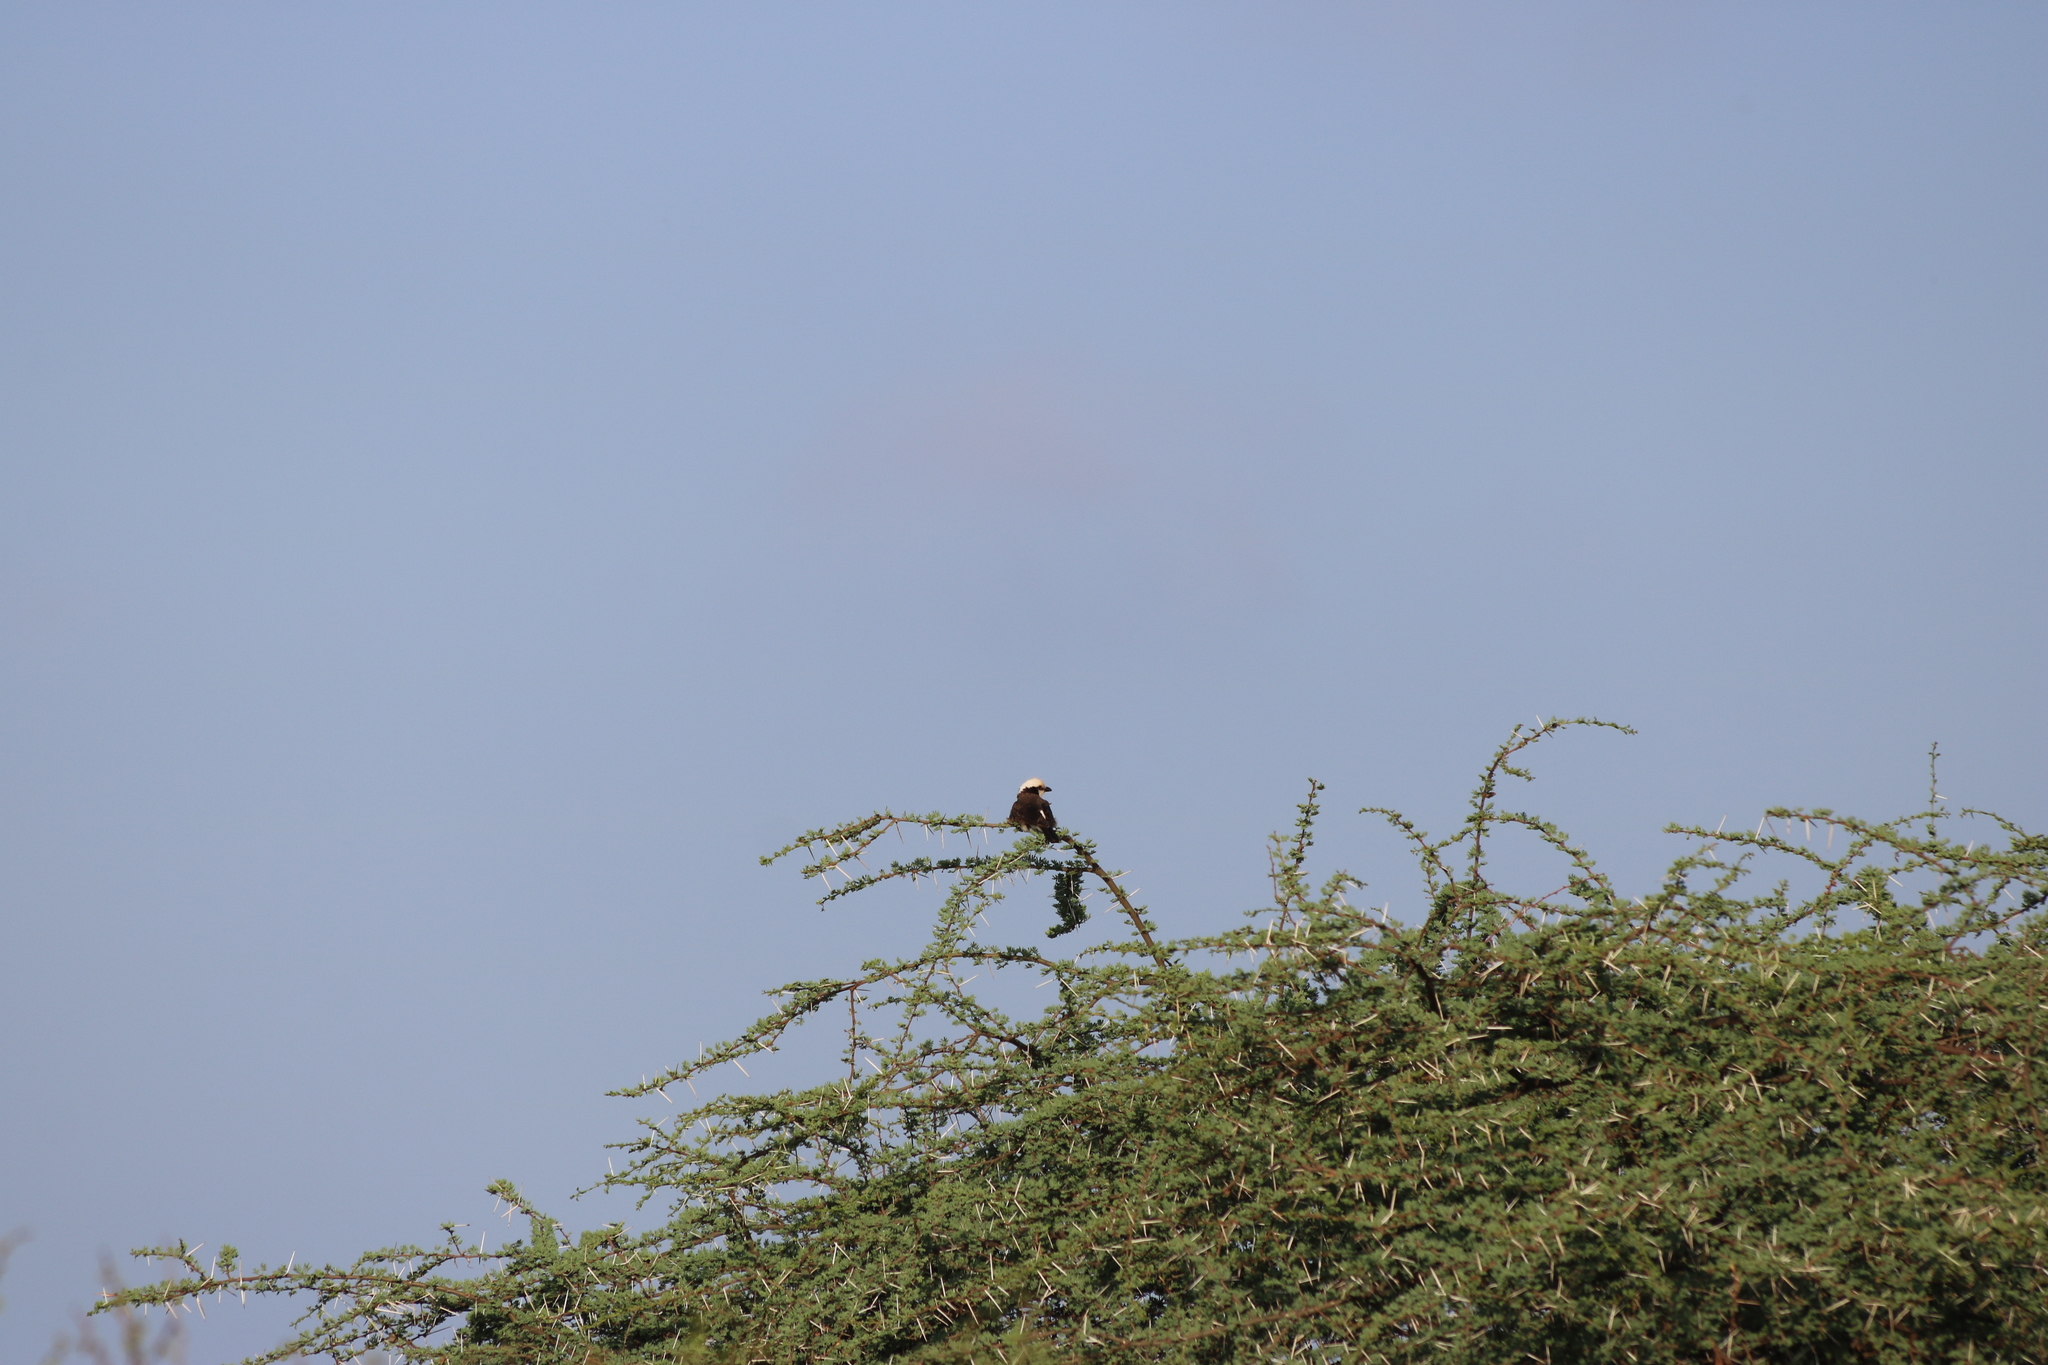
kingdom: Animalia
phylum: Chordata
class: Aves
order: Passeriformes
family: Laniidae
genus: Eurocephalus
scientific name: Eurocephalus ruppelli
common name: Northern white-crowned shrike
